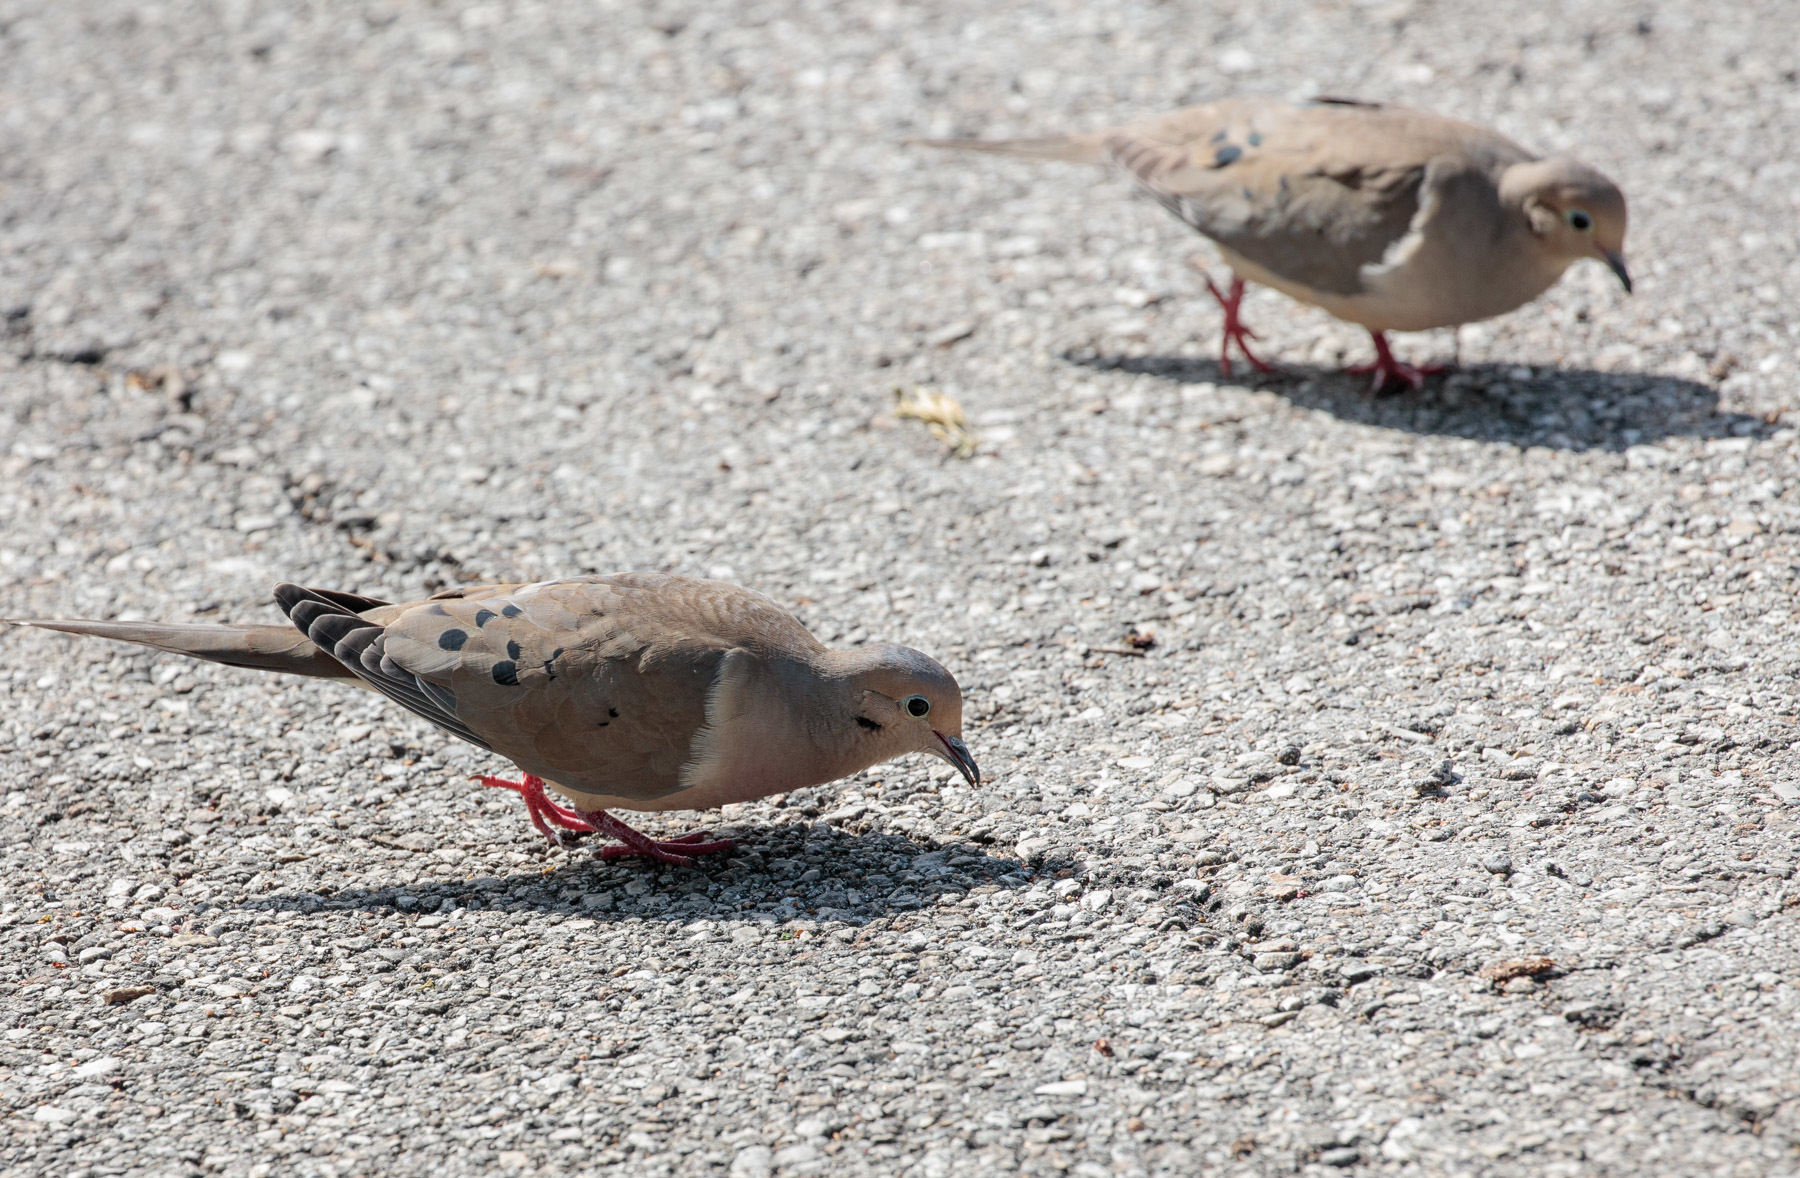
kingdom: Animalia
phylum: Chordata
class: Aves
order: Columbiformes
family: Columbidae
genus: Zenaida
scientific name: Zenaida macroura
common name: Mourning dove
